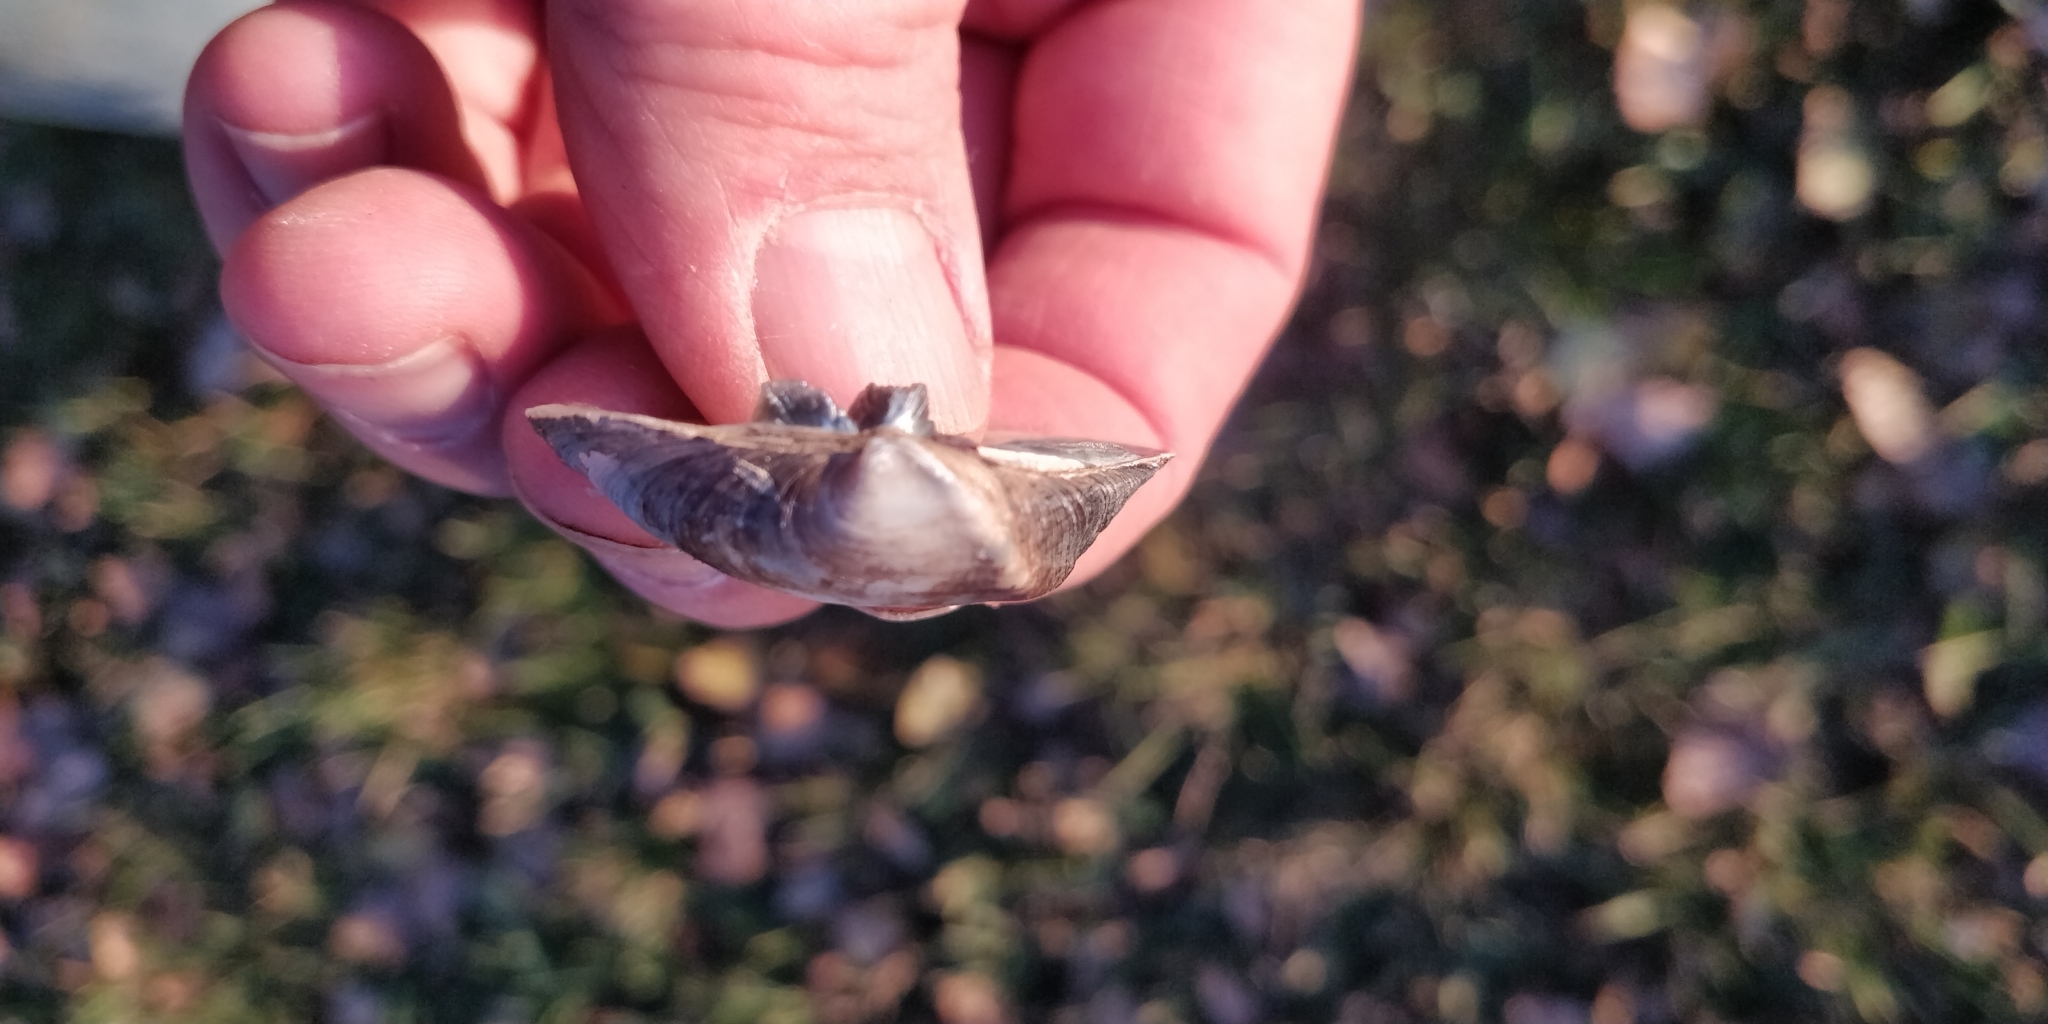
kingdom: Animalia
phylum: Mollusca
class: Bivalvia
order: Unionida
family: Unionidae
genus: Truncilla
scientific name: Truncilla truncata
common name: Deertoe
